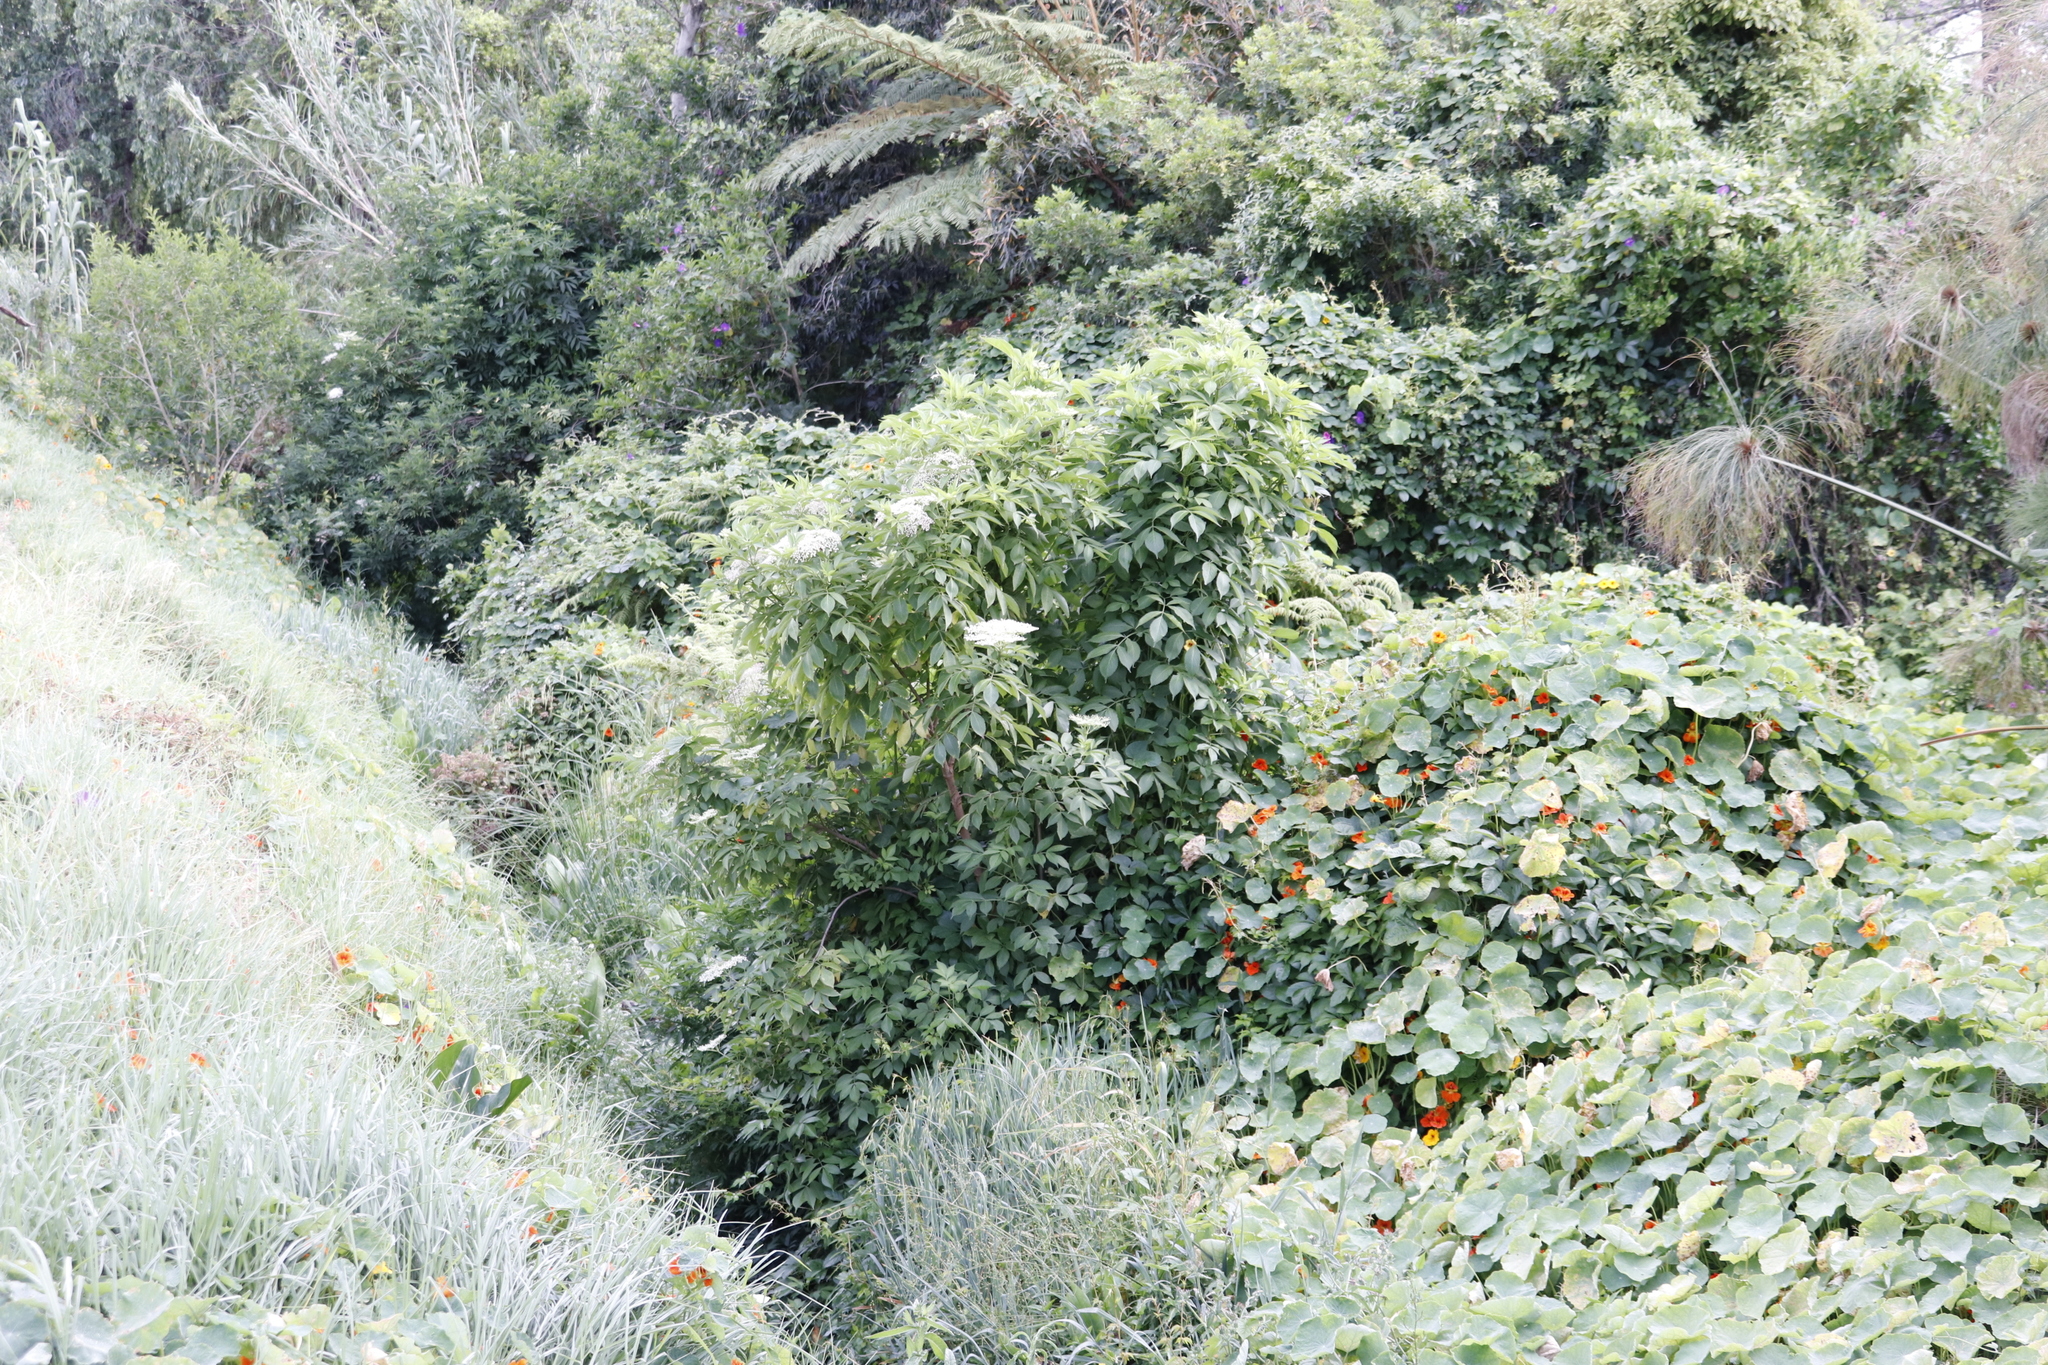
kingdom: Plantae
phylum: Tracheophyta
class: Magnoliopsida
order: Dipsacales
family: Viburnaceae
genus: Sambucus
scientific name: Sambucus nigra
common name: Elder
